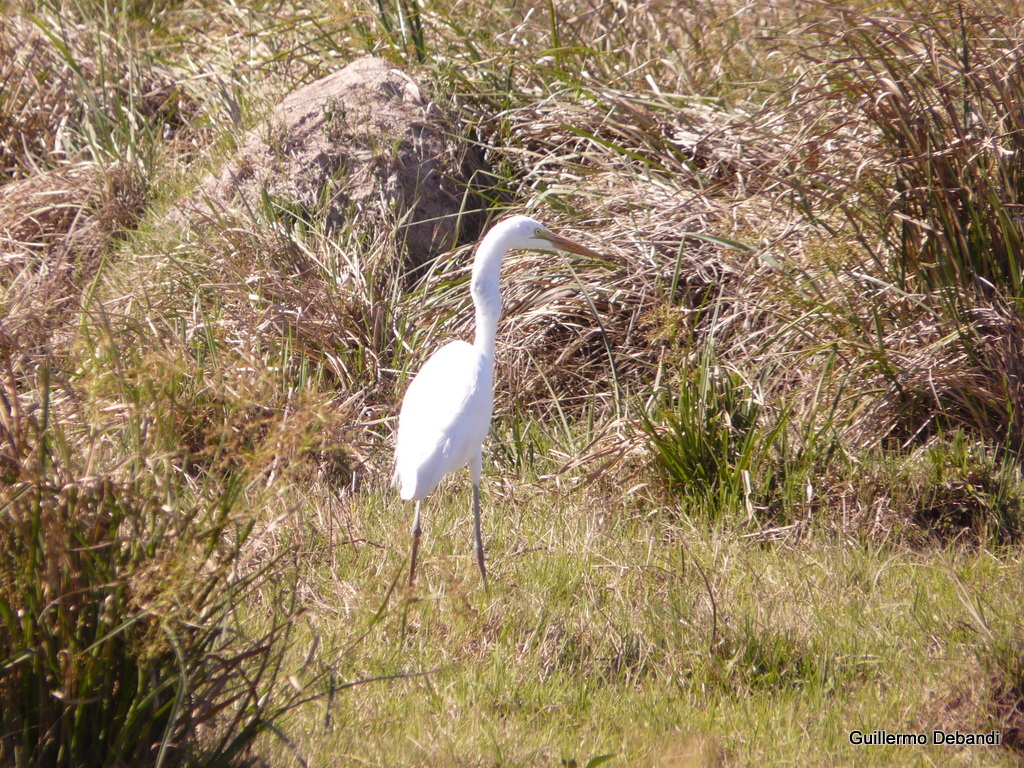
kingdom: Animalia
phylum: Chordata
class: Aves
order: Pelecaniformes
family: Ardeidae
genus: Ardea
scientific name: Ardea alba
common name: Great egret
